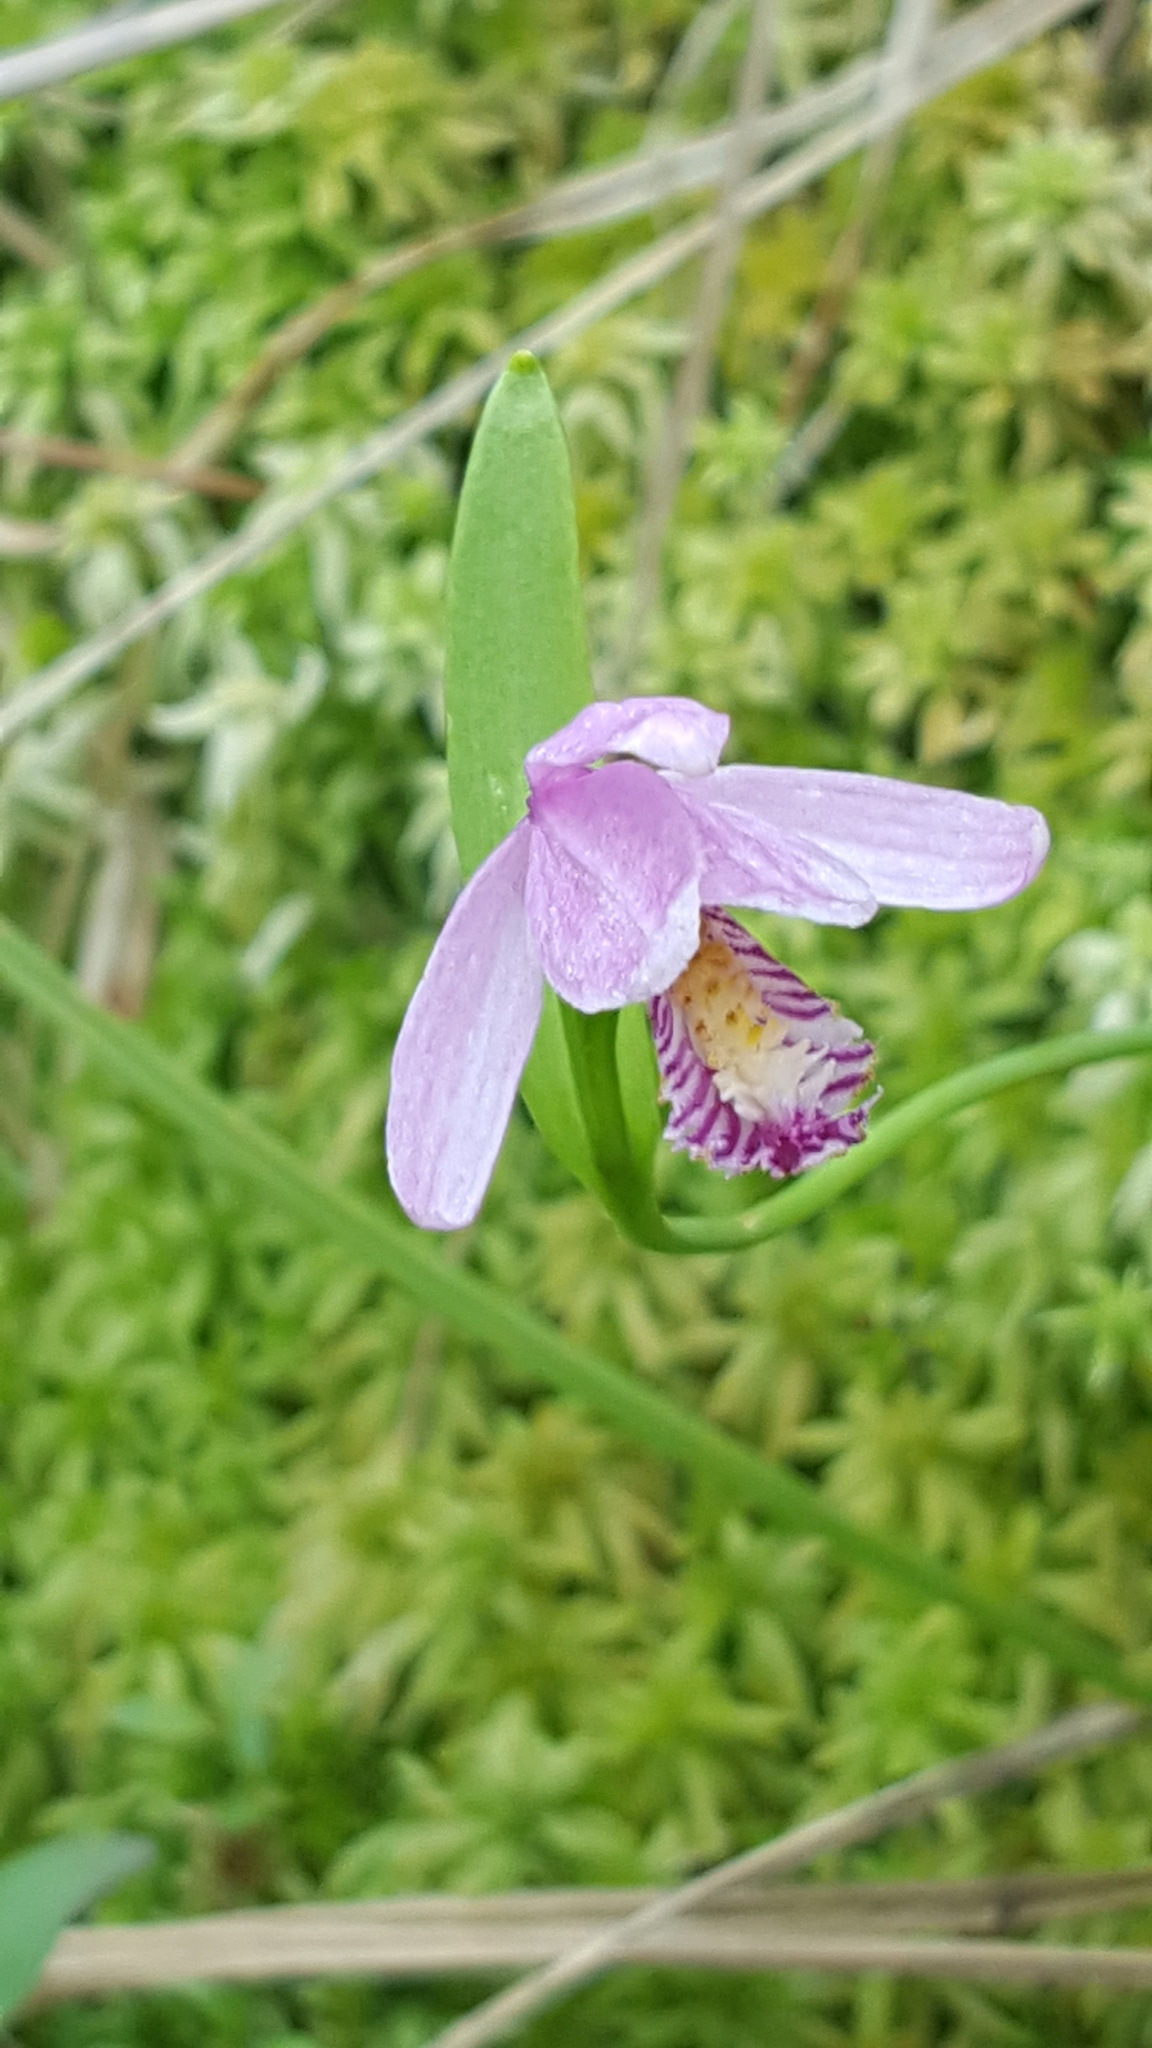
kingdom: Plantae
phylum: Tracheophyta
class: Liliopsida
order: Asparagales
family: Orchidaceae
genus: Pogonia
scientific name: Pogonia ophioglossoides
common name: Rose pogonia
